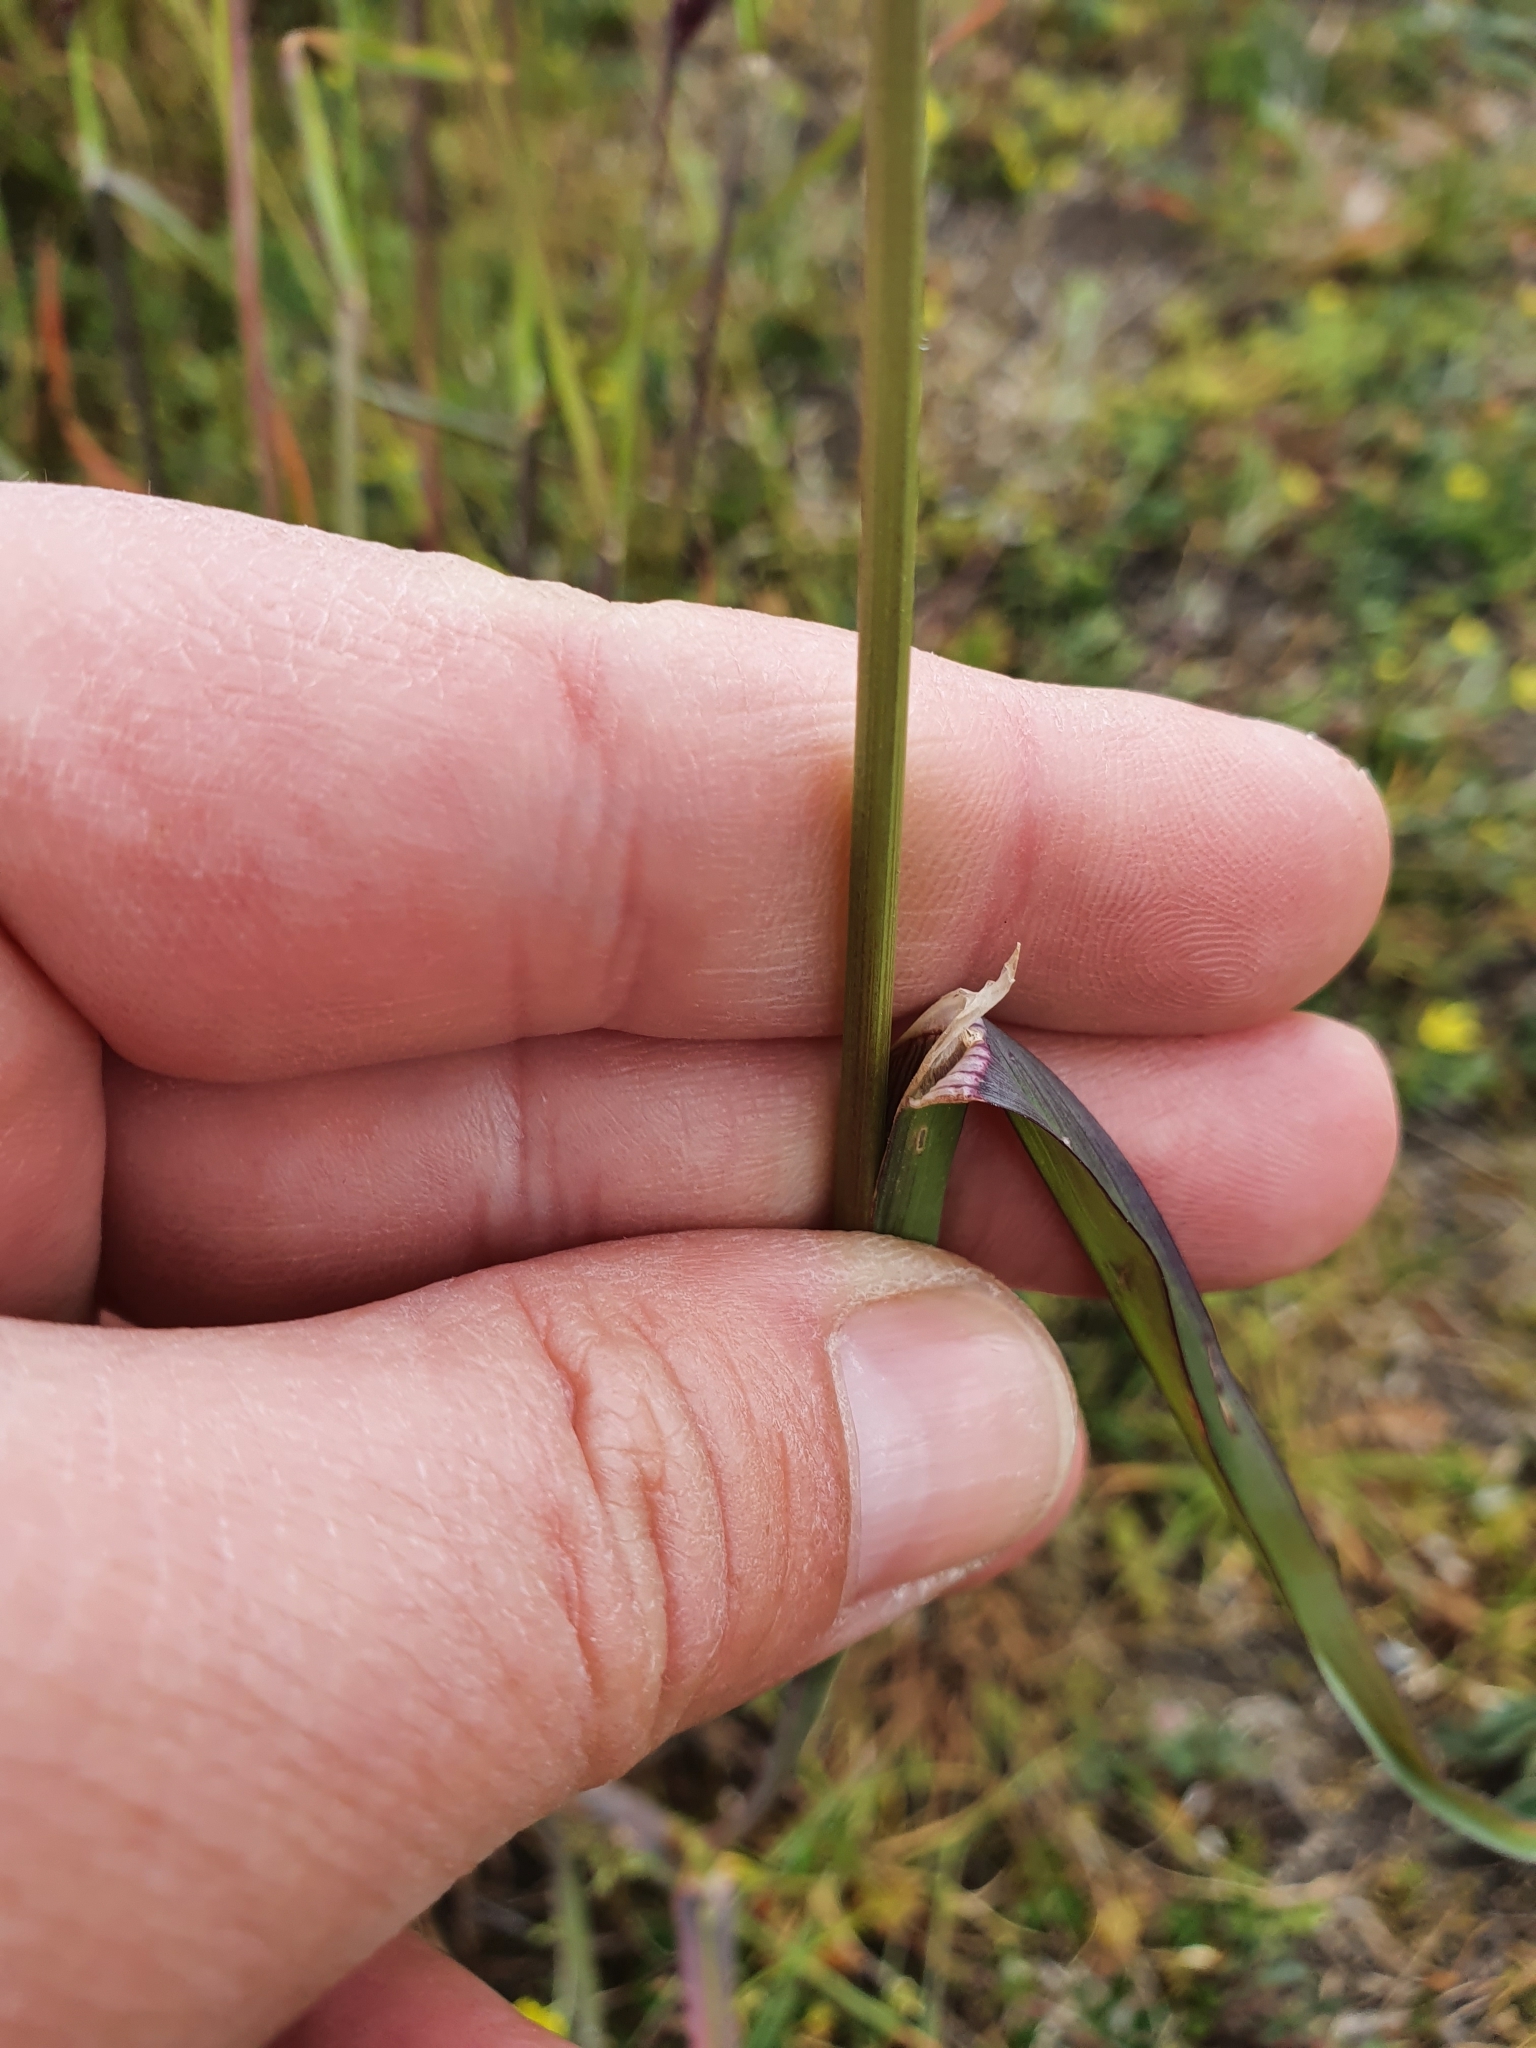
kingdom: Plantae
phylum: Tracheophyta
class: Liliopsida
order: Poales
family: Poaceae
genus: Dactylis
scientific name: Dactylis glomerata
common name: Orchardgrass
